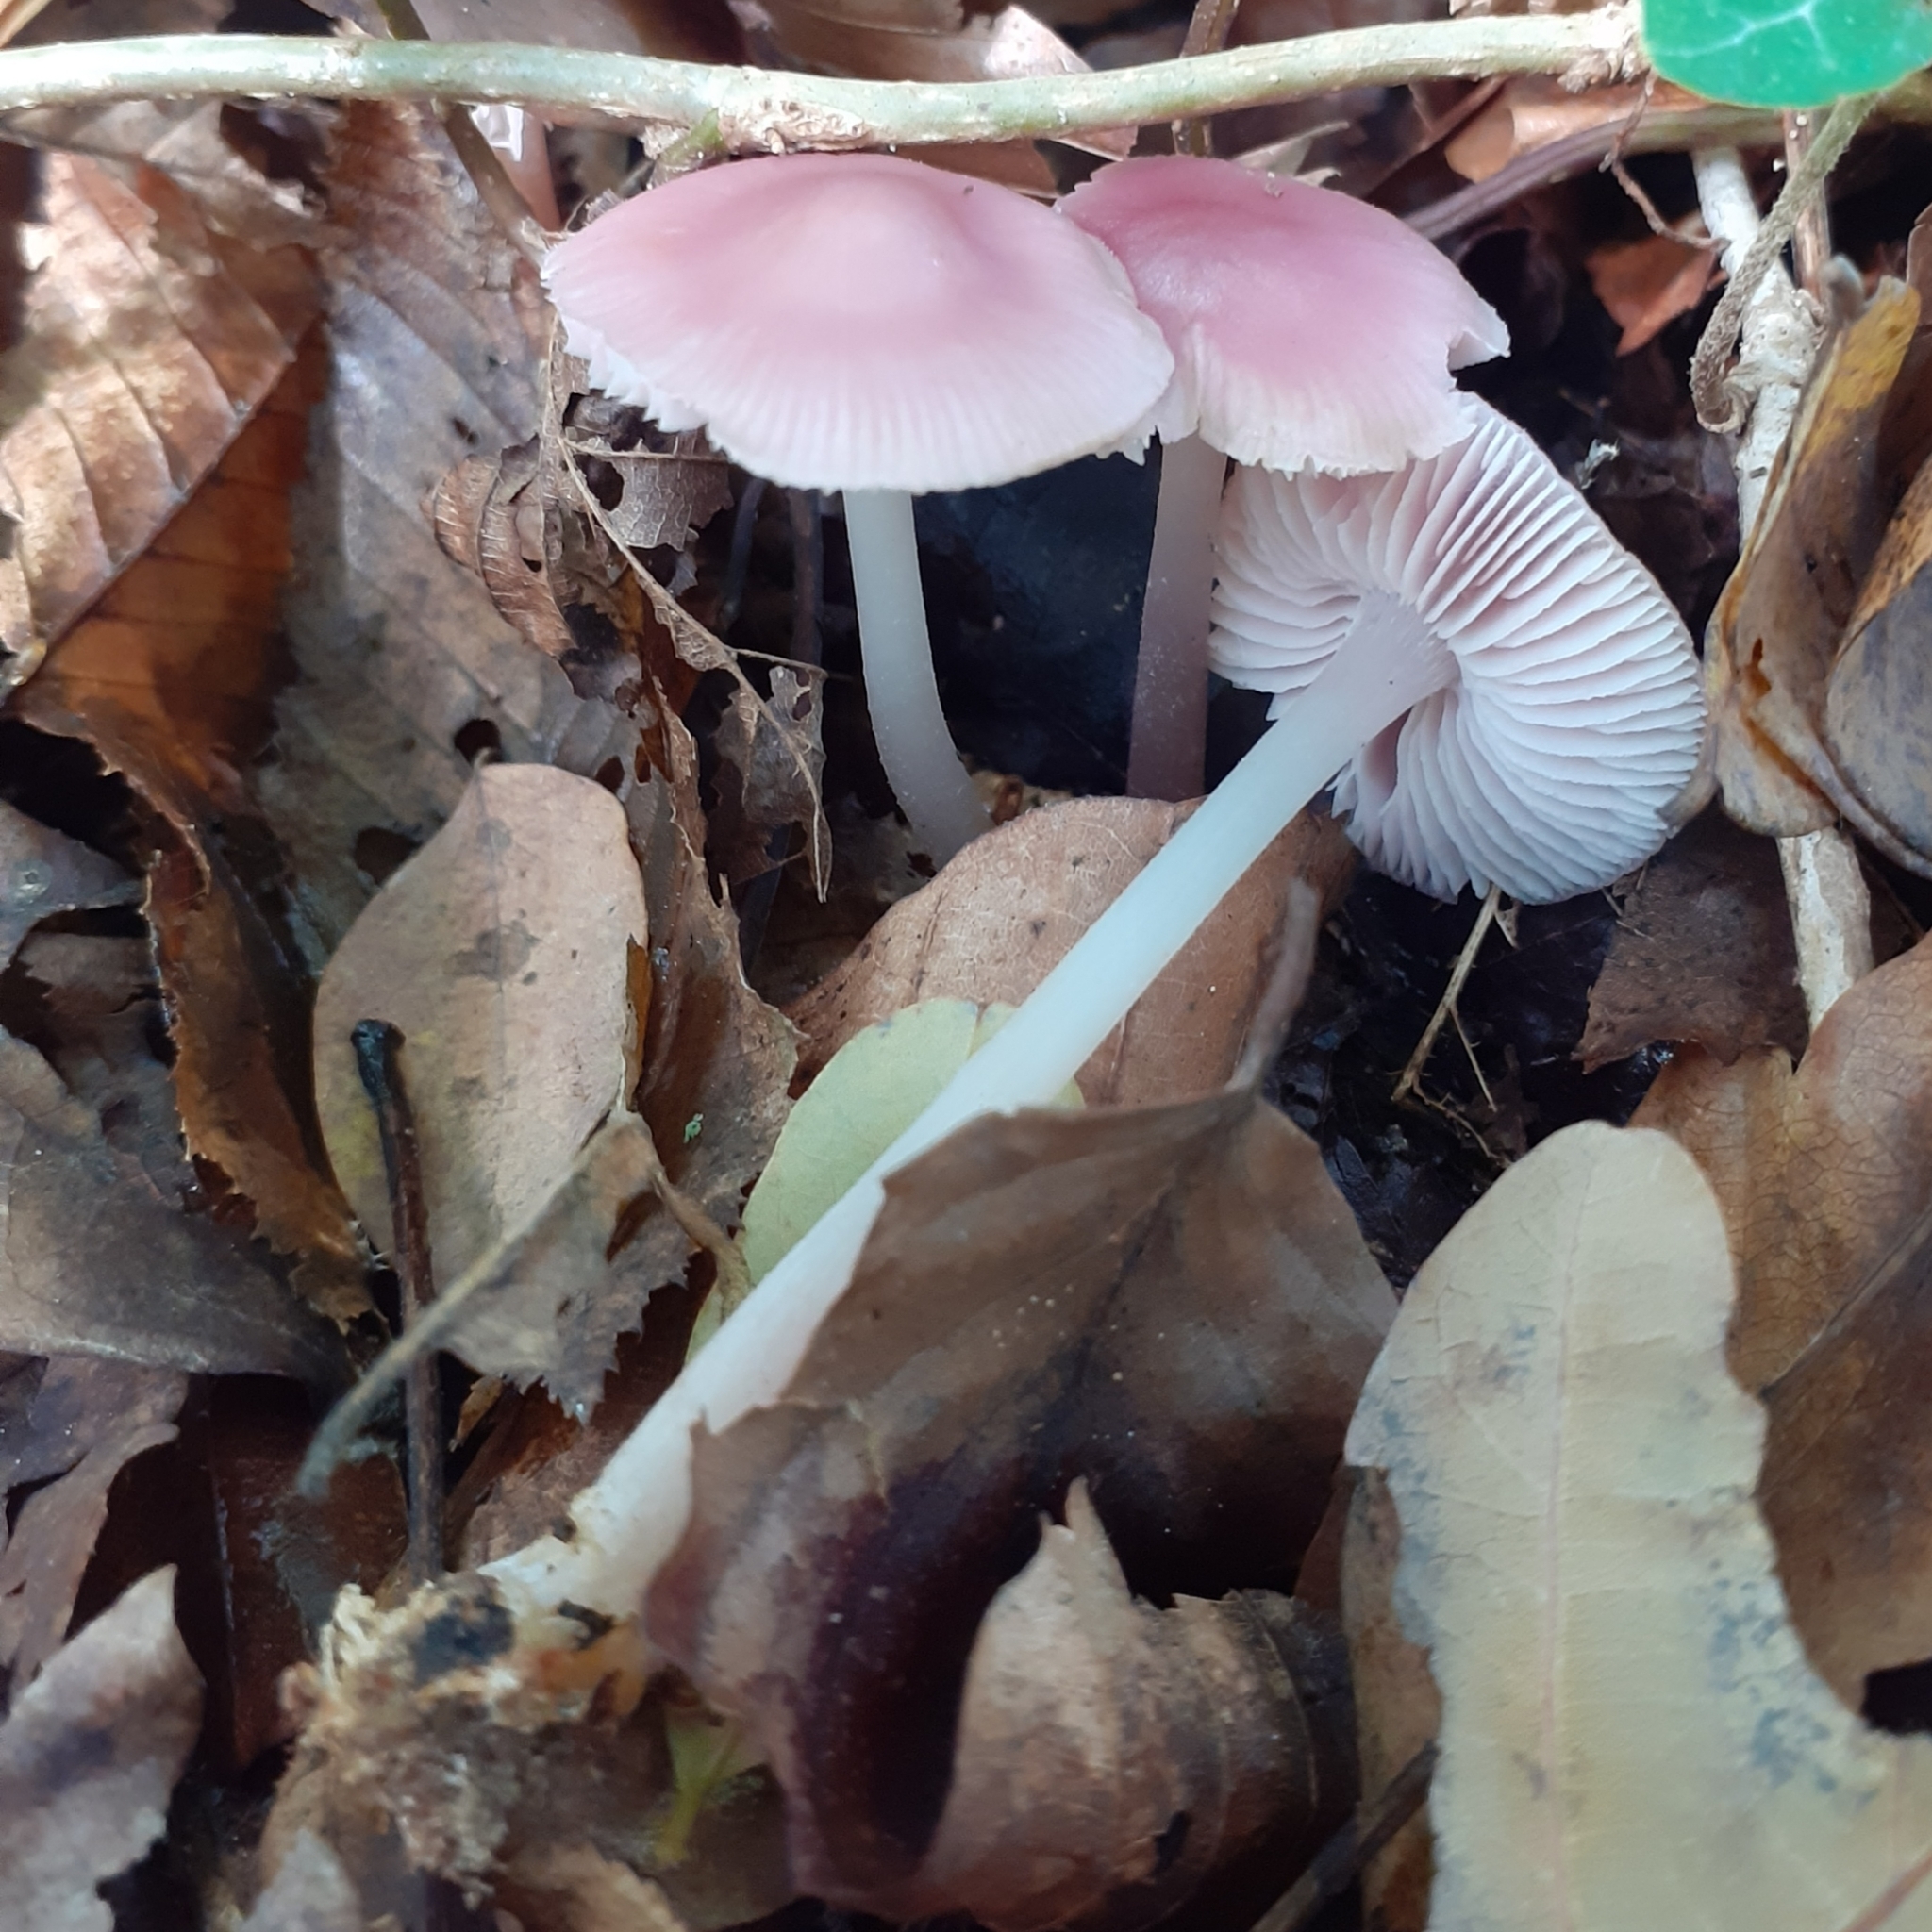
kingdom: Fungi
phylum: Basidiomycota
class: Agaricomycetes
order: Agaricales
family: Mycenaceae
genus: Mycena
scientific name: Mycena rosea
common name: Rosy bonnet
